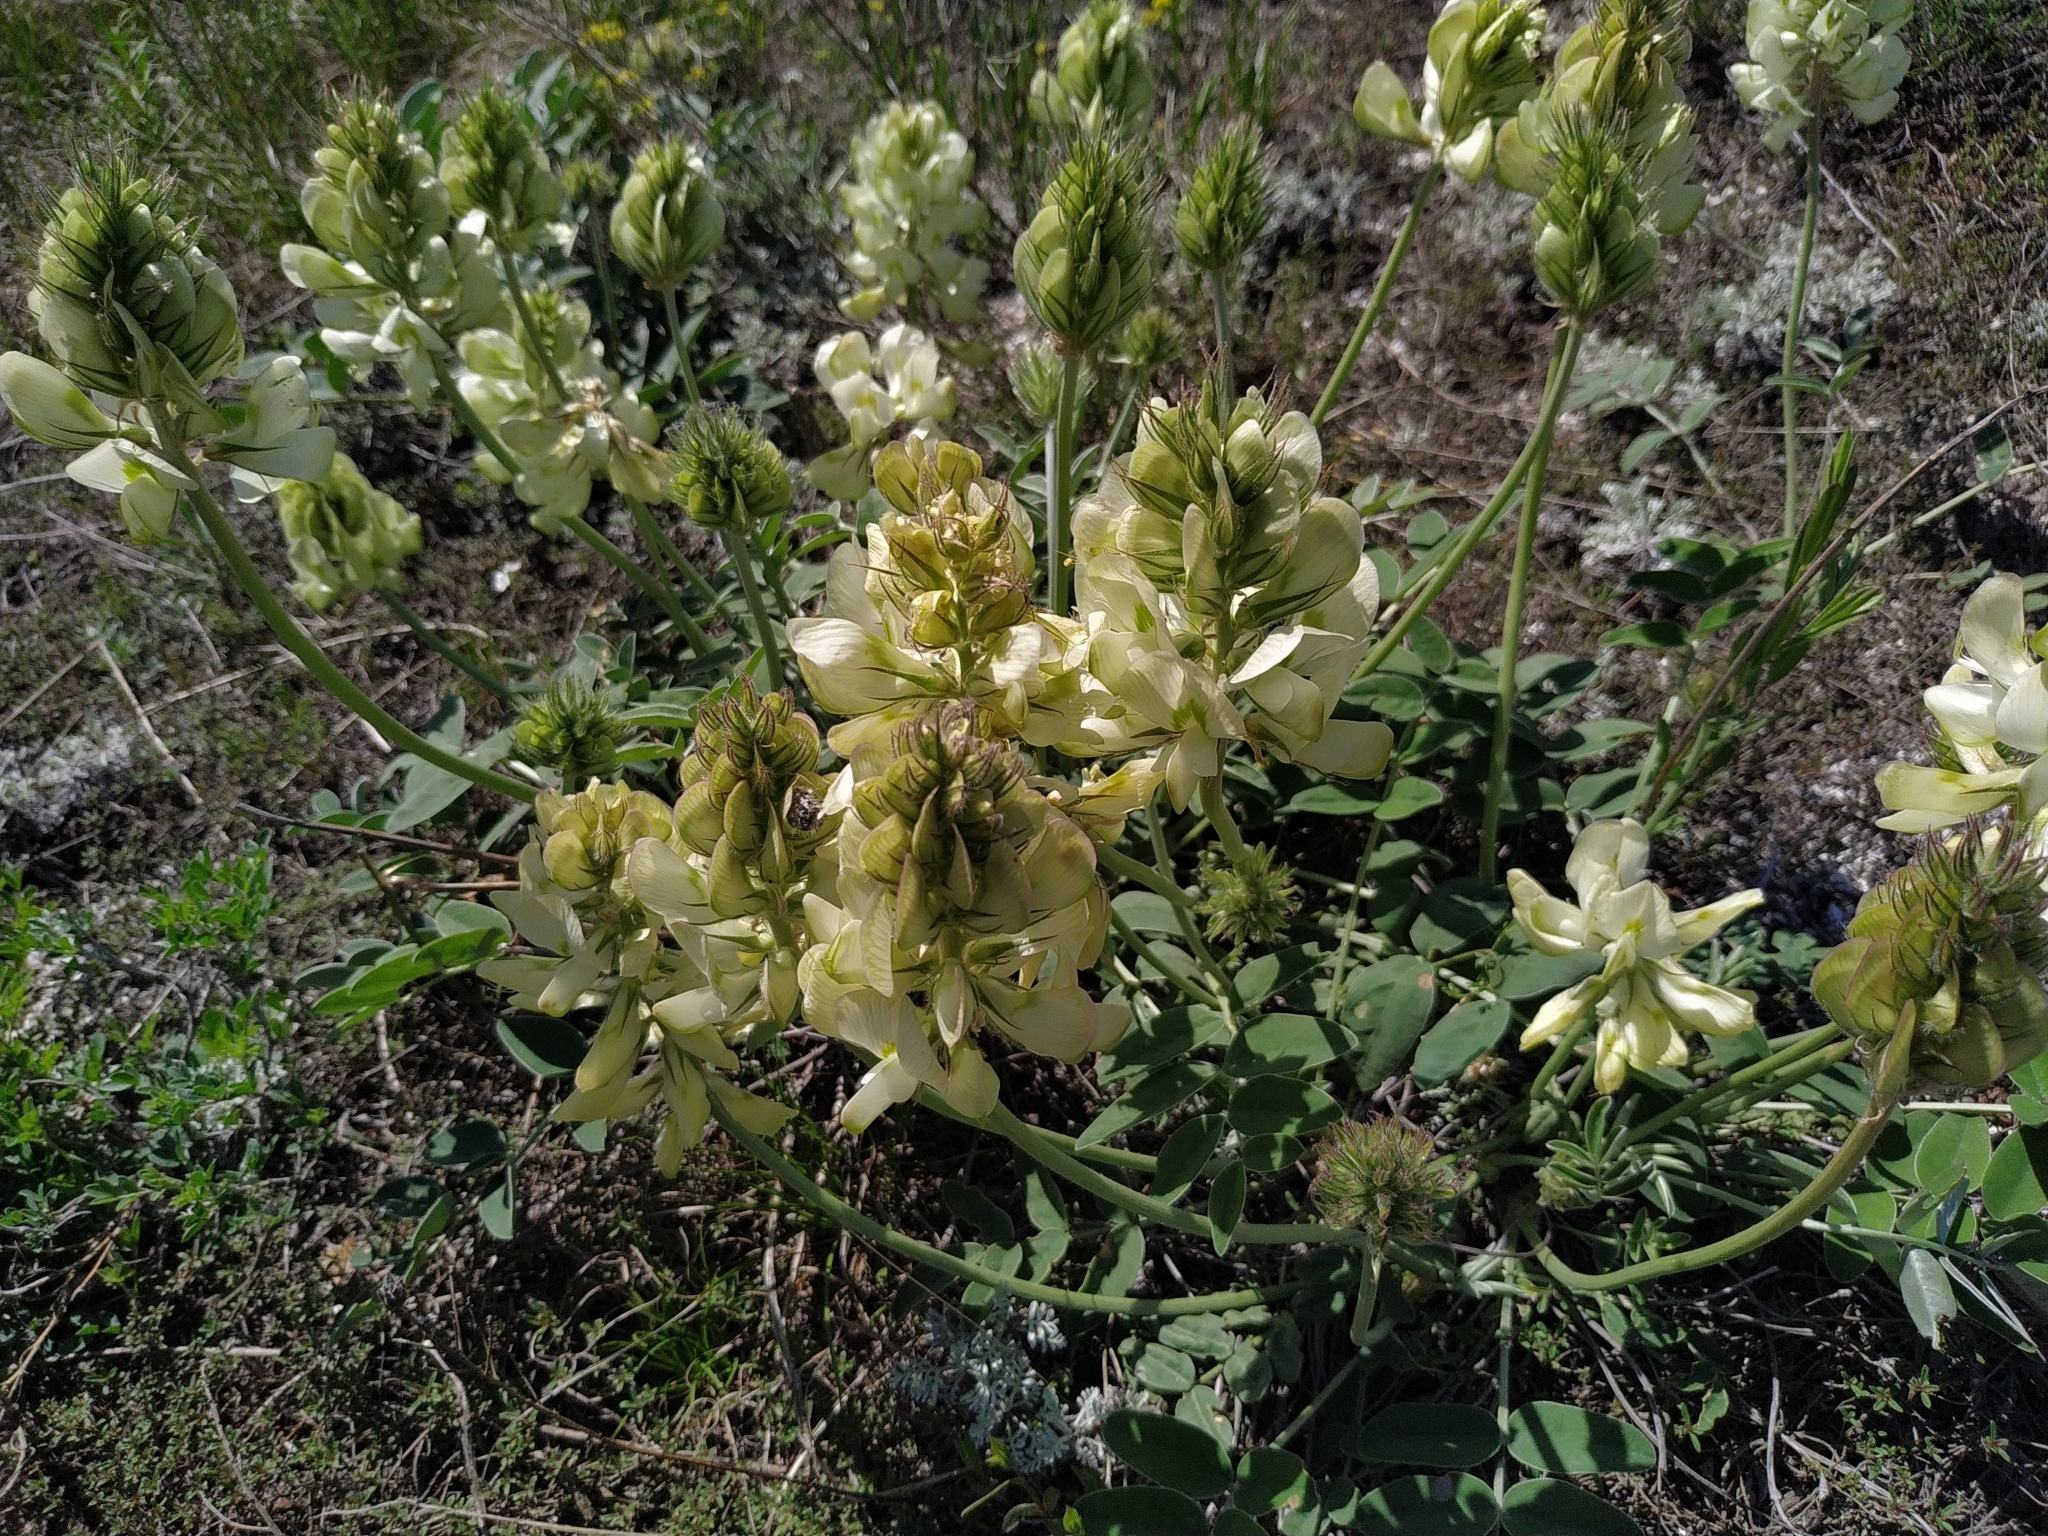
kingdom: Plantae
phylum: Tracheophyta
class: Magnoliopsida
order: Fabales
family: Fabaceae
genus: Hedysarum
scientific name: Hedysarum grandiflorum
